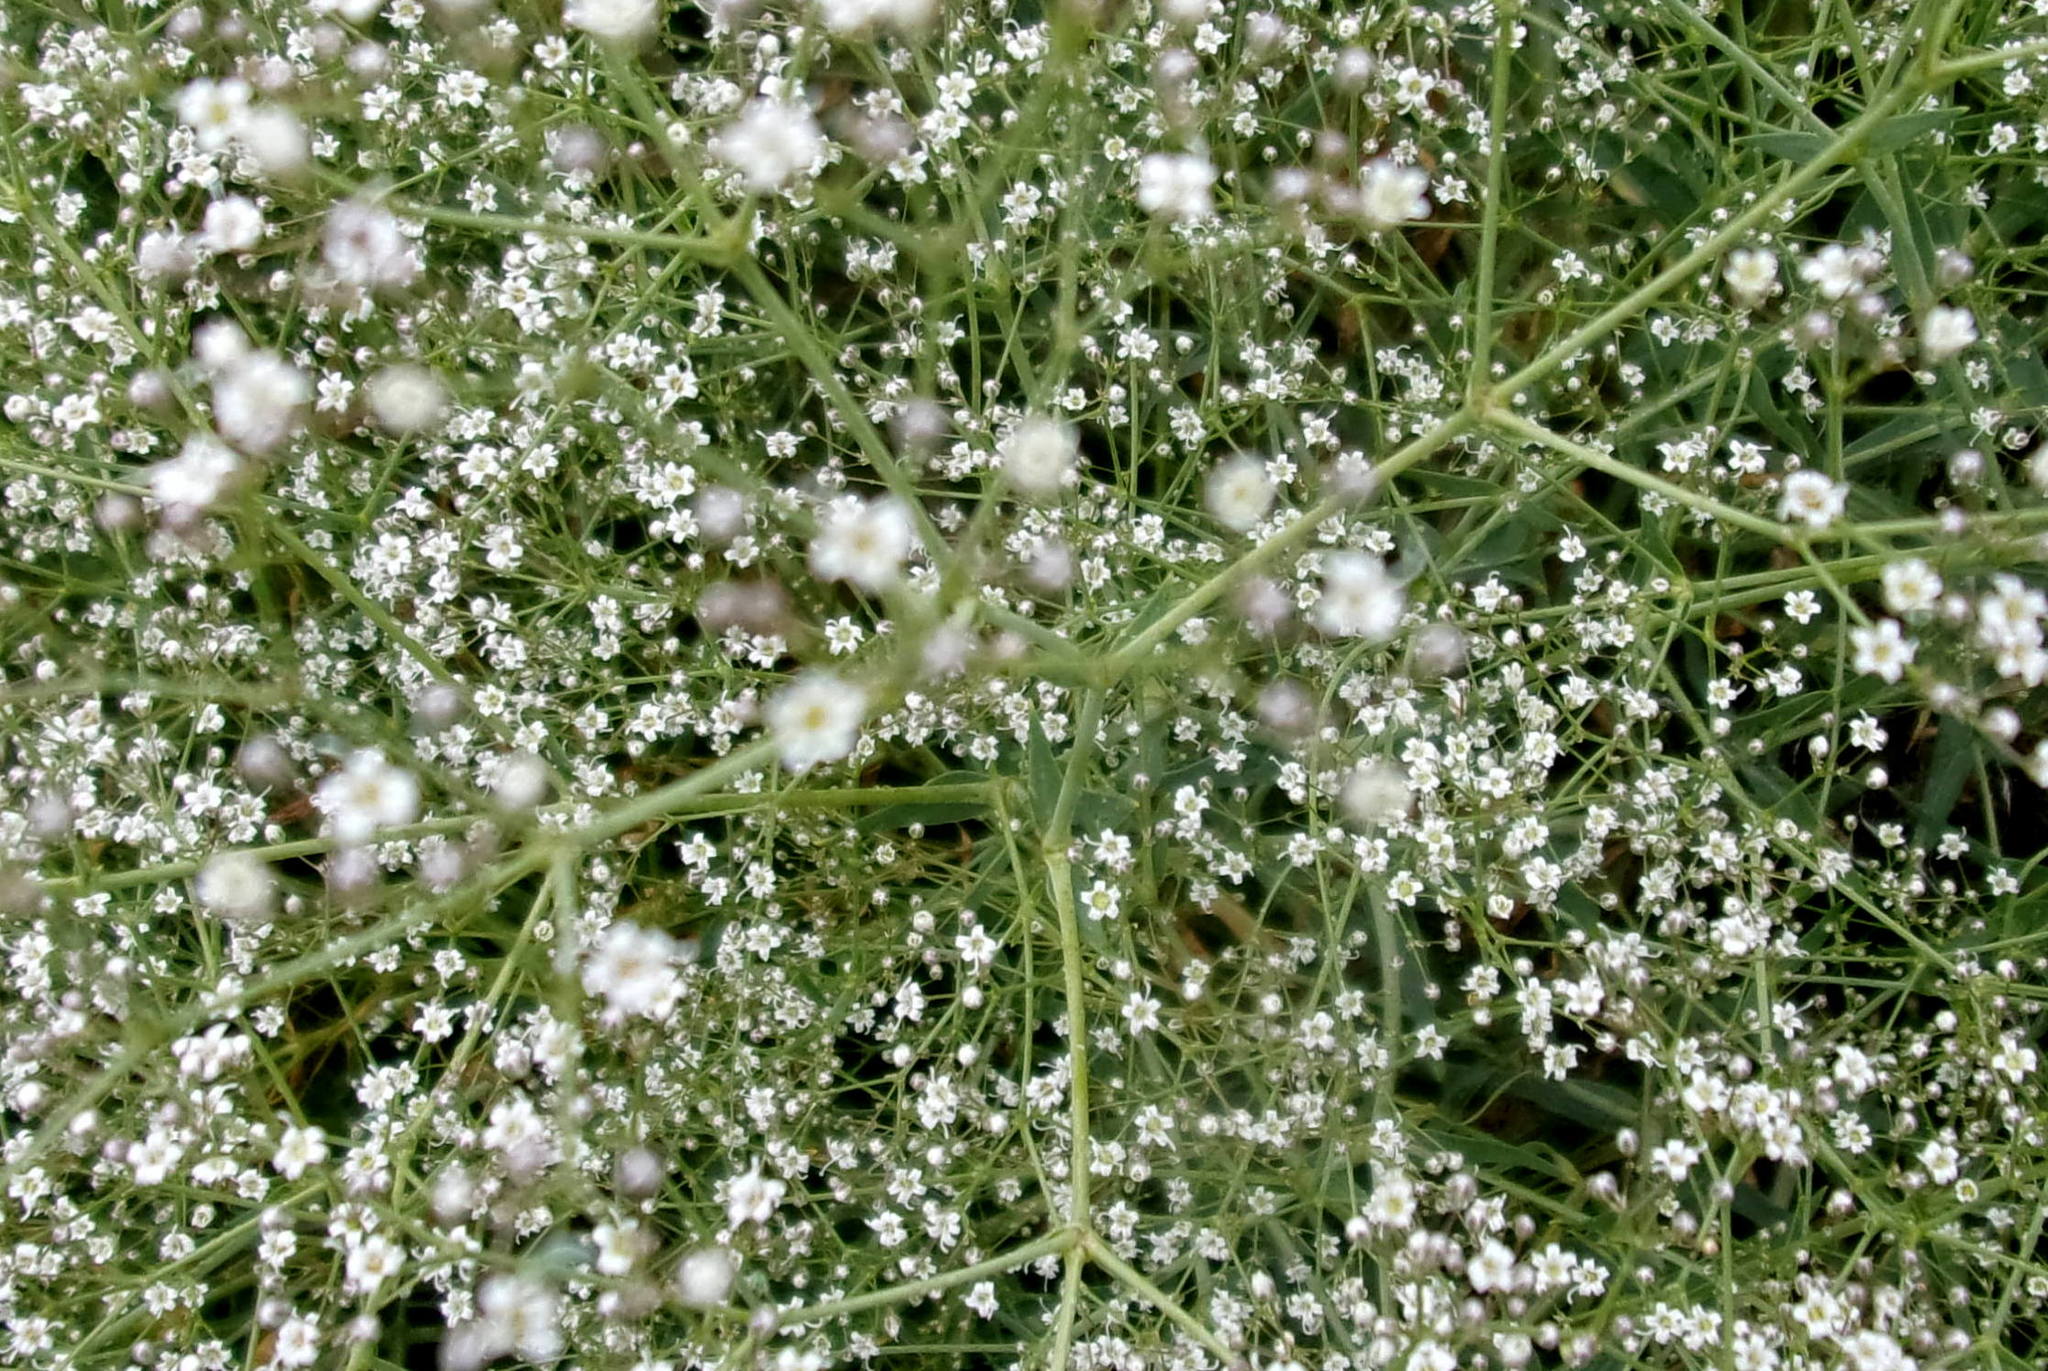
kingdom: Plantae
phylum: Tracheophyta
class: Magnoliopsida
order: Caryophyllales
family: Caryophyllaceae
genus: Gypsophila
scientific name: Gypsophila paniculata
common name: Baby's-breath
